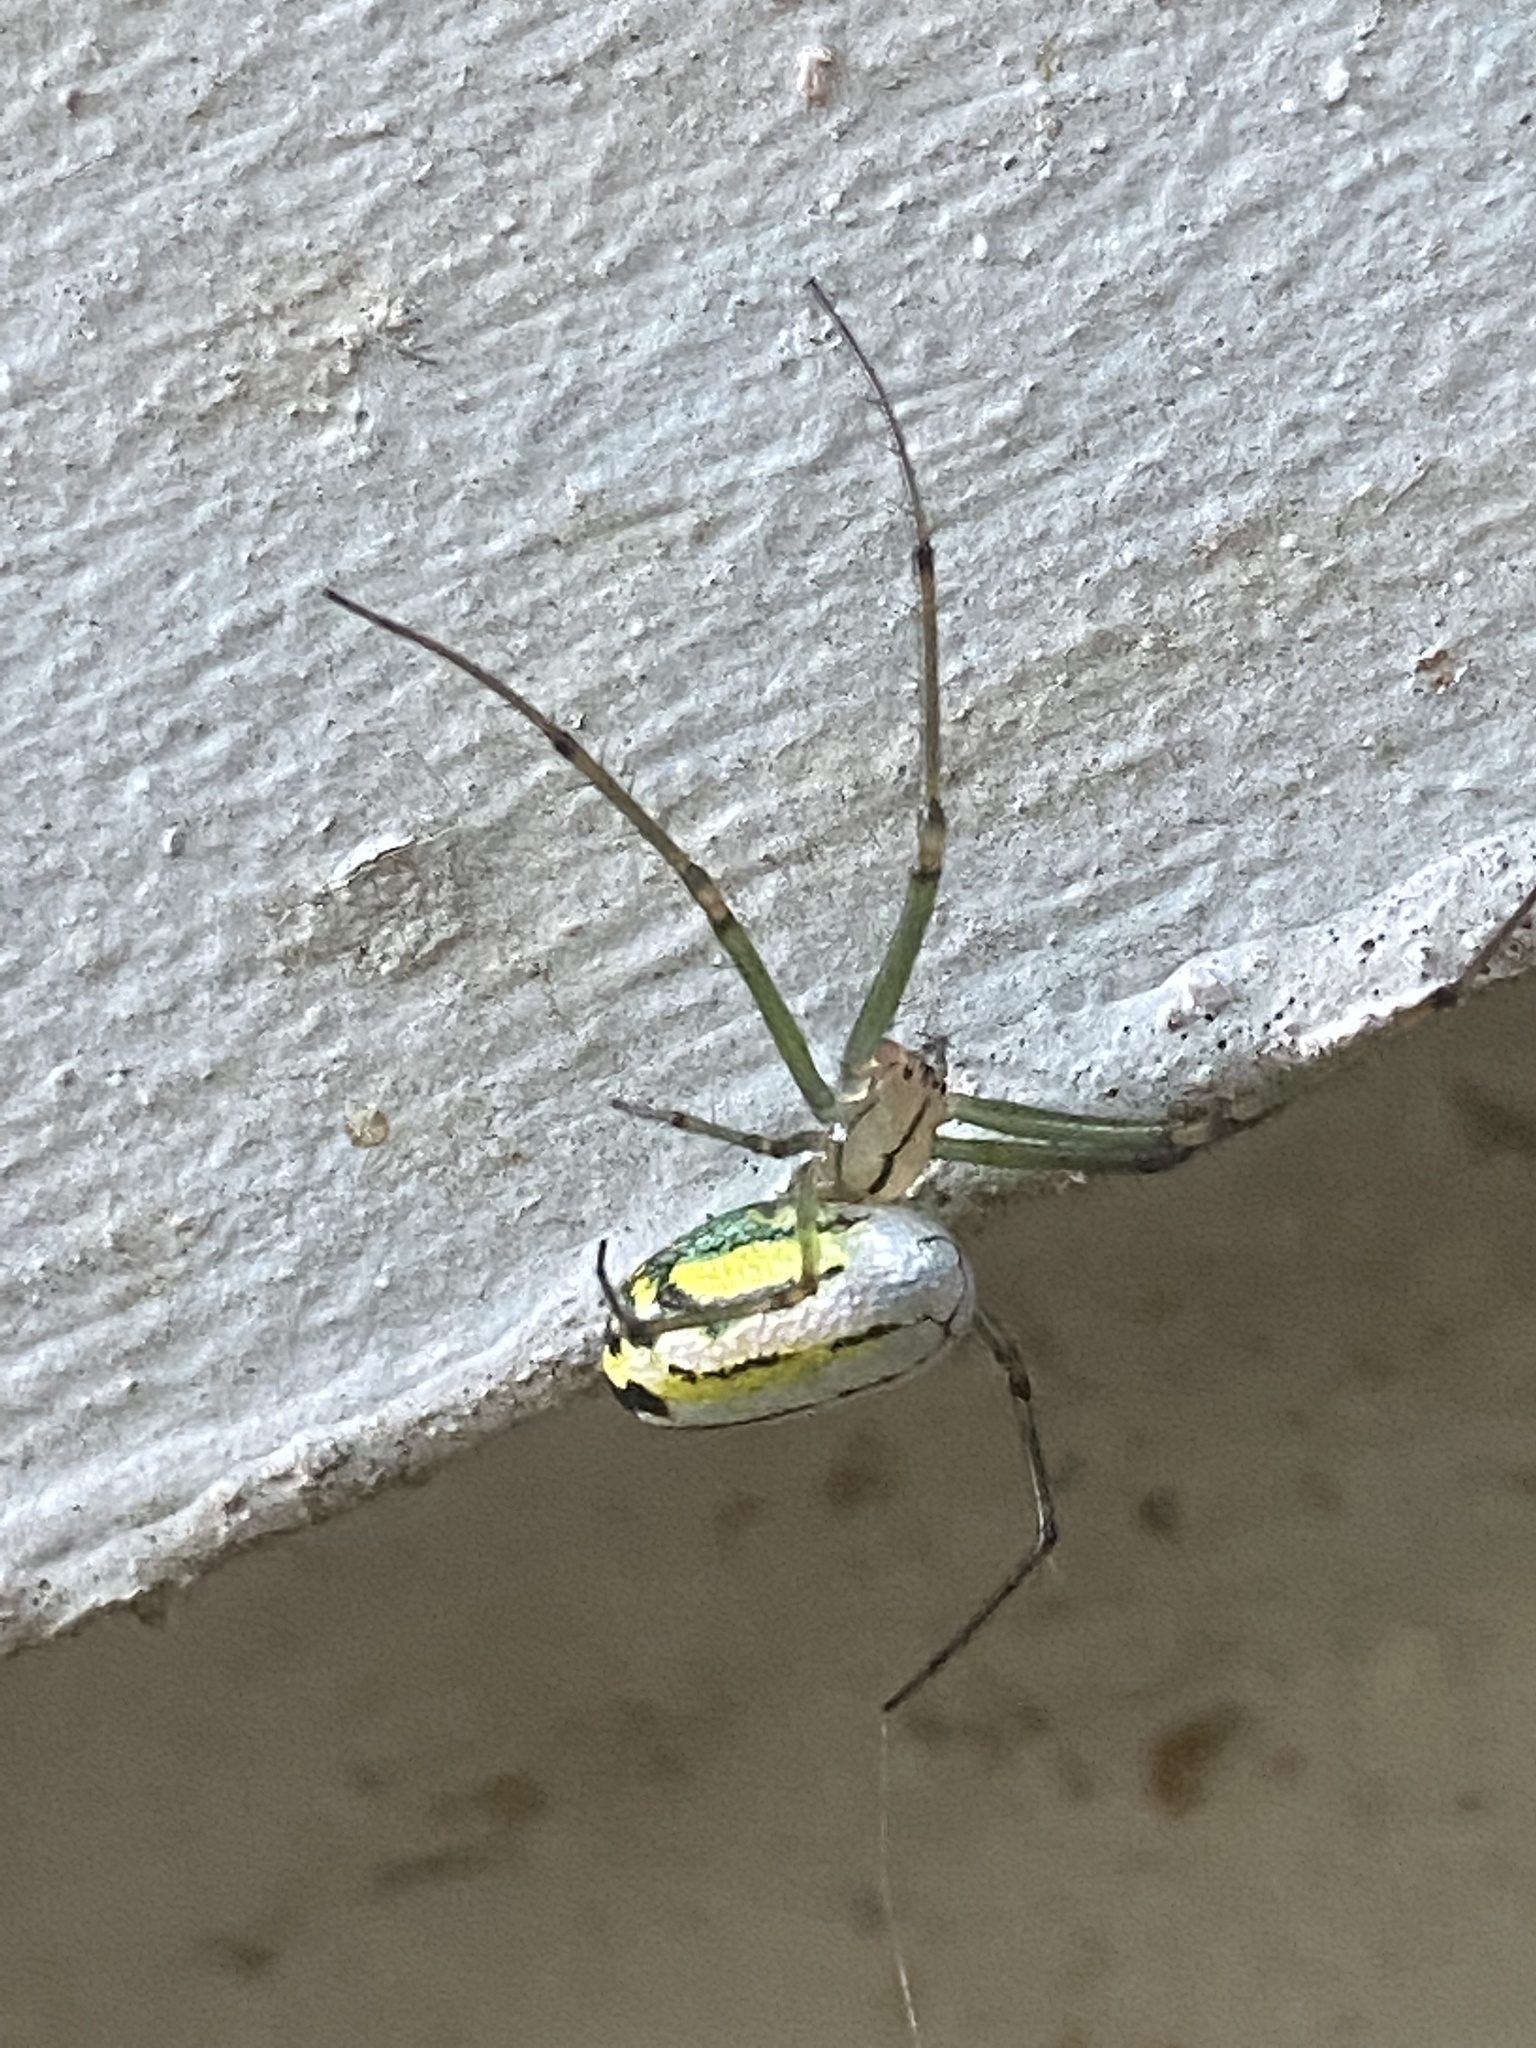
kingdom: Animalia
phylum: Arthropoda
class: Arachnida
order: Araneae
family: Tetragnathidae
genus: Leucauge
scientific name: Leucauge venusta
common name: Longjawed orb weavers
